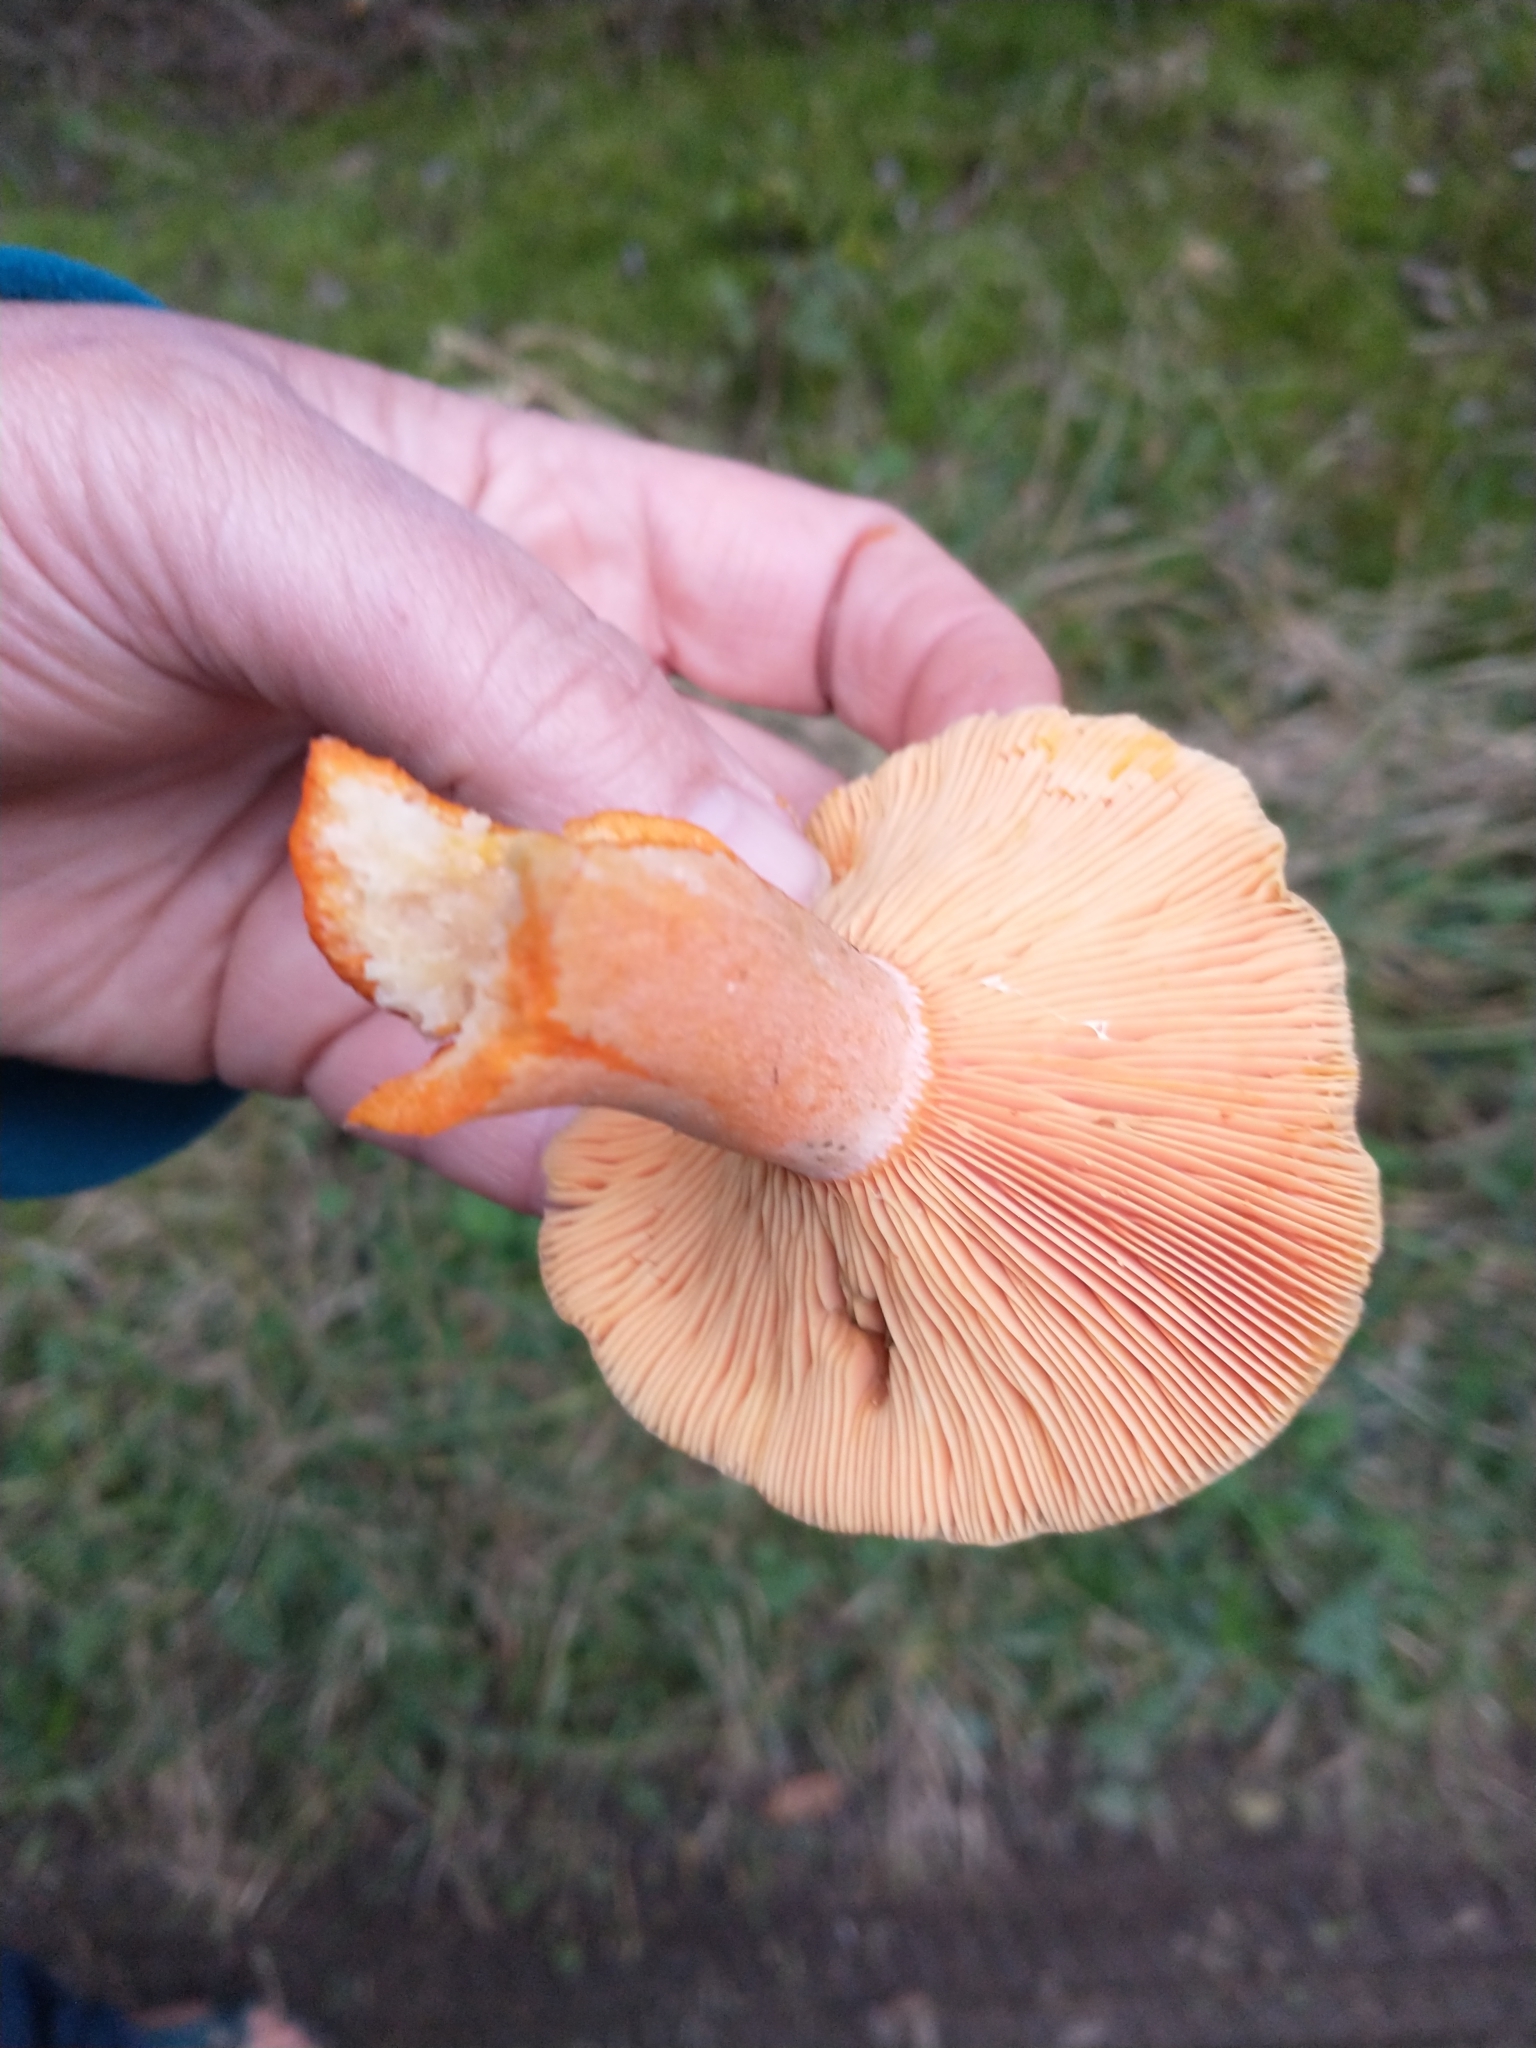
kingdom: Fungi
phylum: Basidiomycota
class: Agaricomycetes
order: Russulales
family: Russulaceae
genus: Lactarius
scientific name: Lactarius deterrimus
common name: False saffron milkcap
